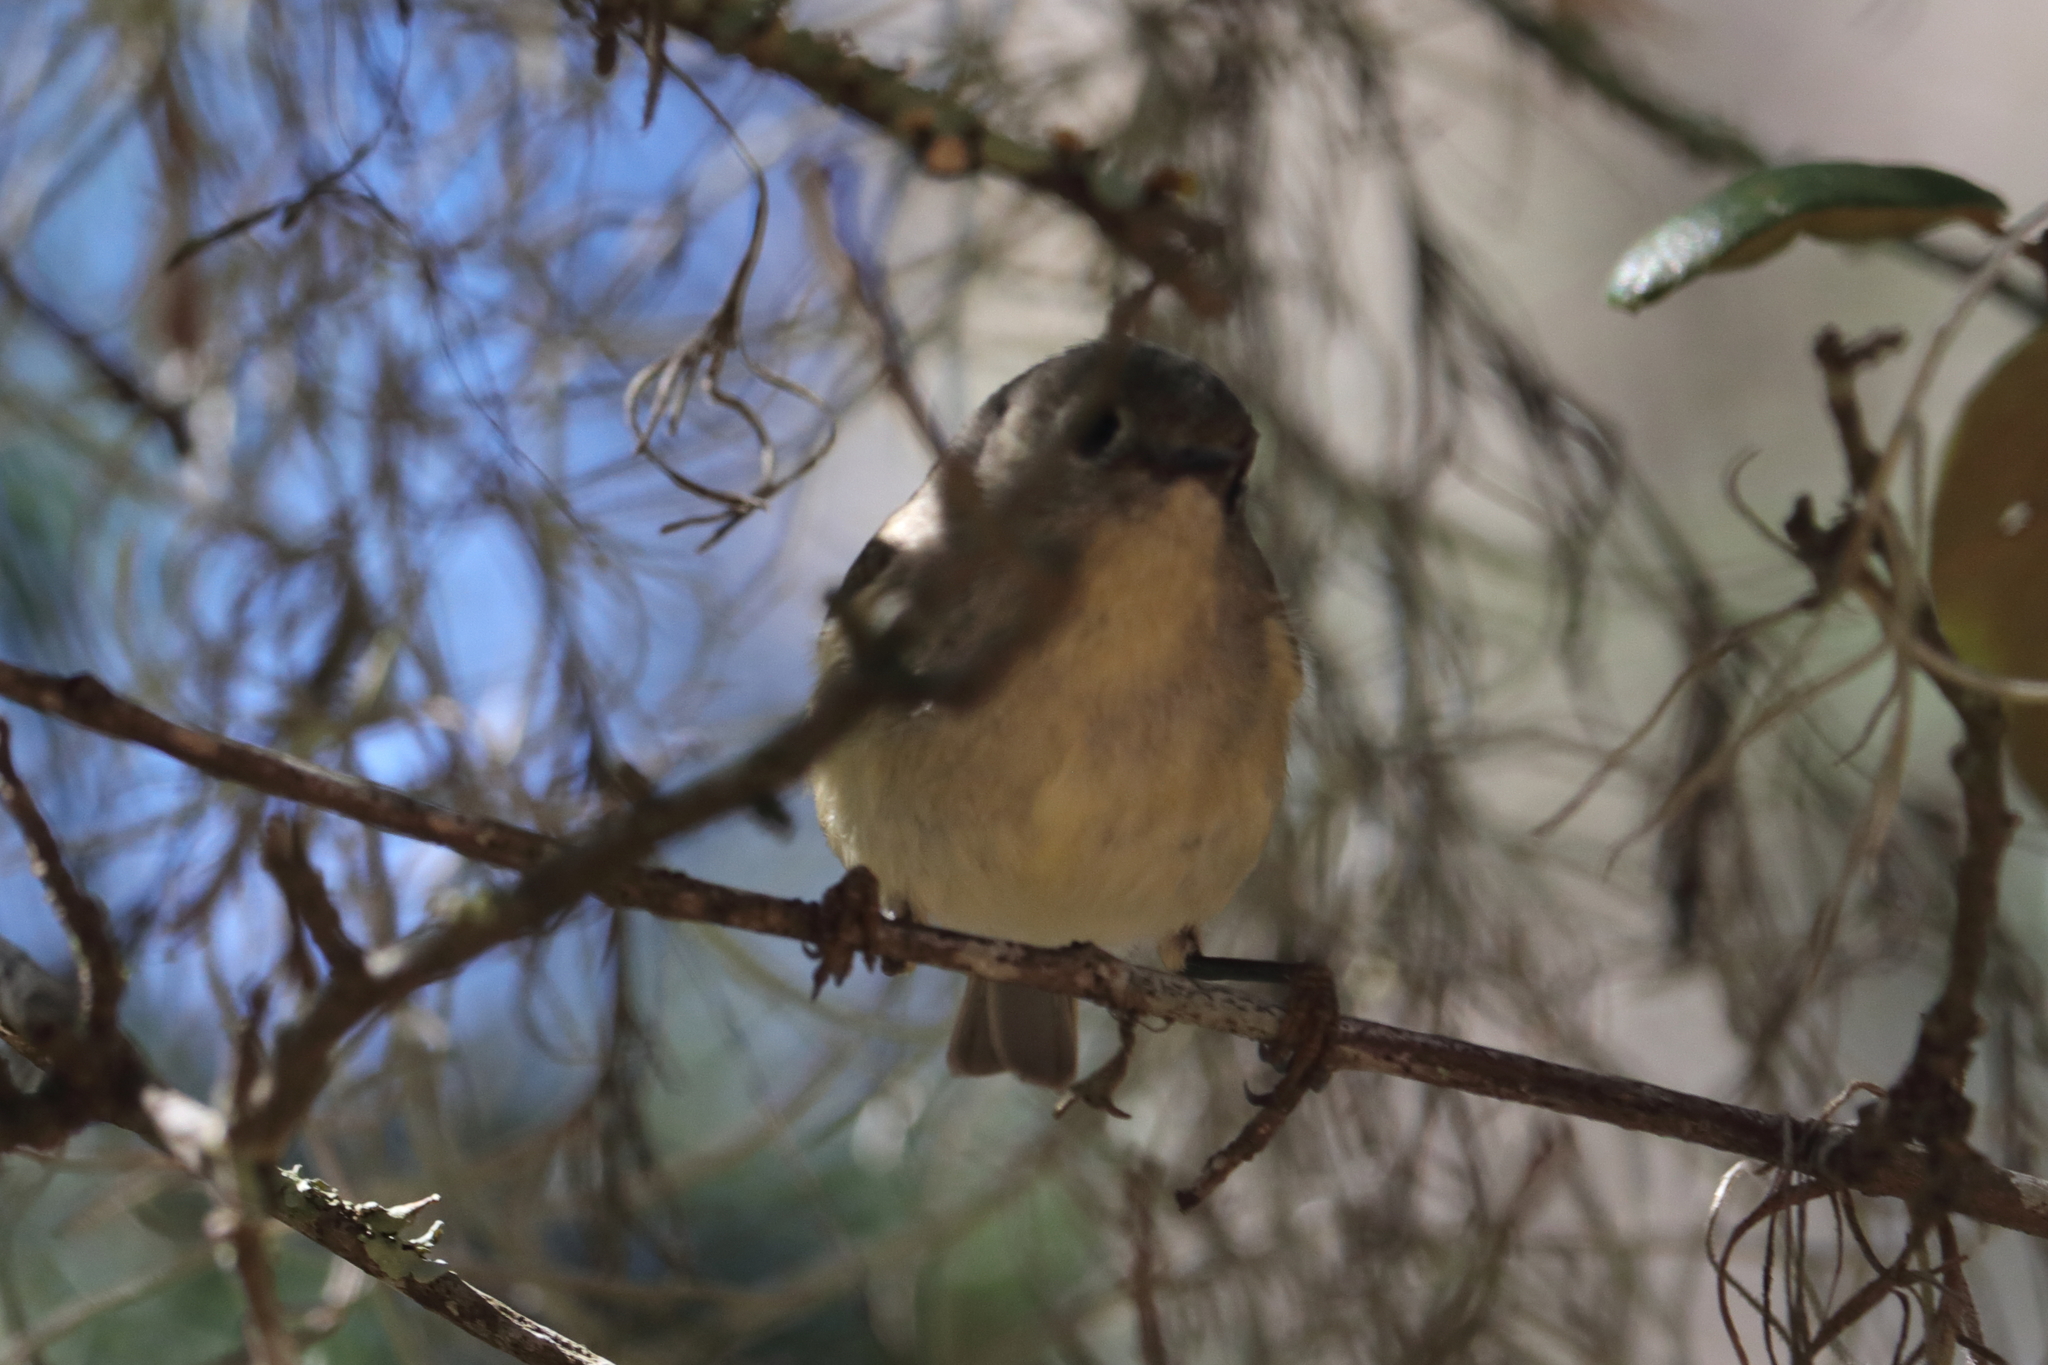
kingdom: Animalia
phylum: Chordata
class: Aves
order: Passeriformes
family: Regulidae
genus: Regulus
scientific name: Regulus calendula
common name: Ruby-crowned kinglet
